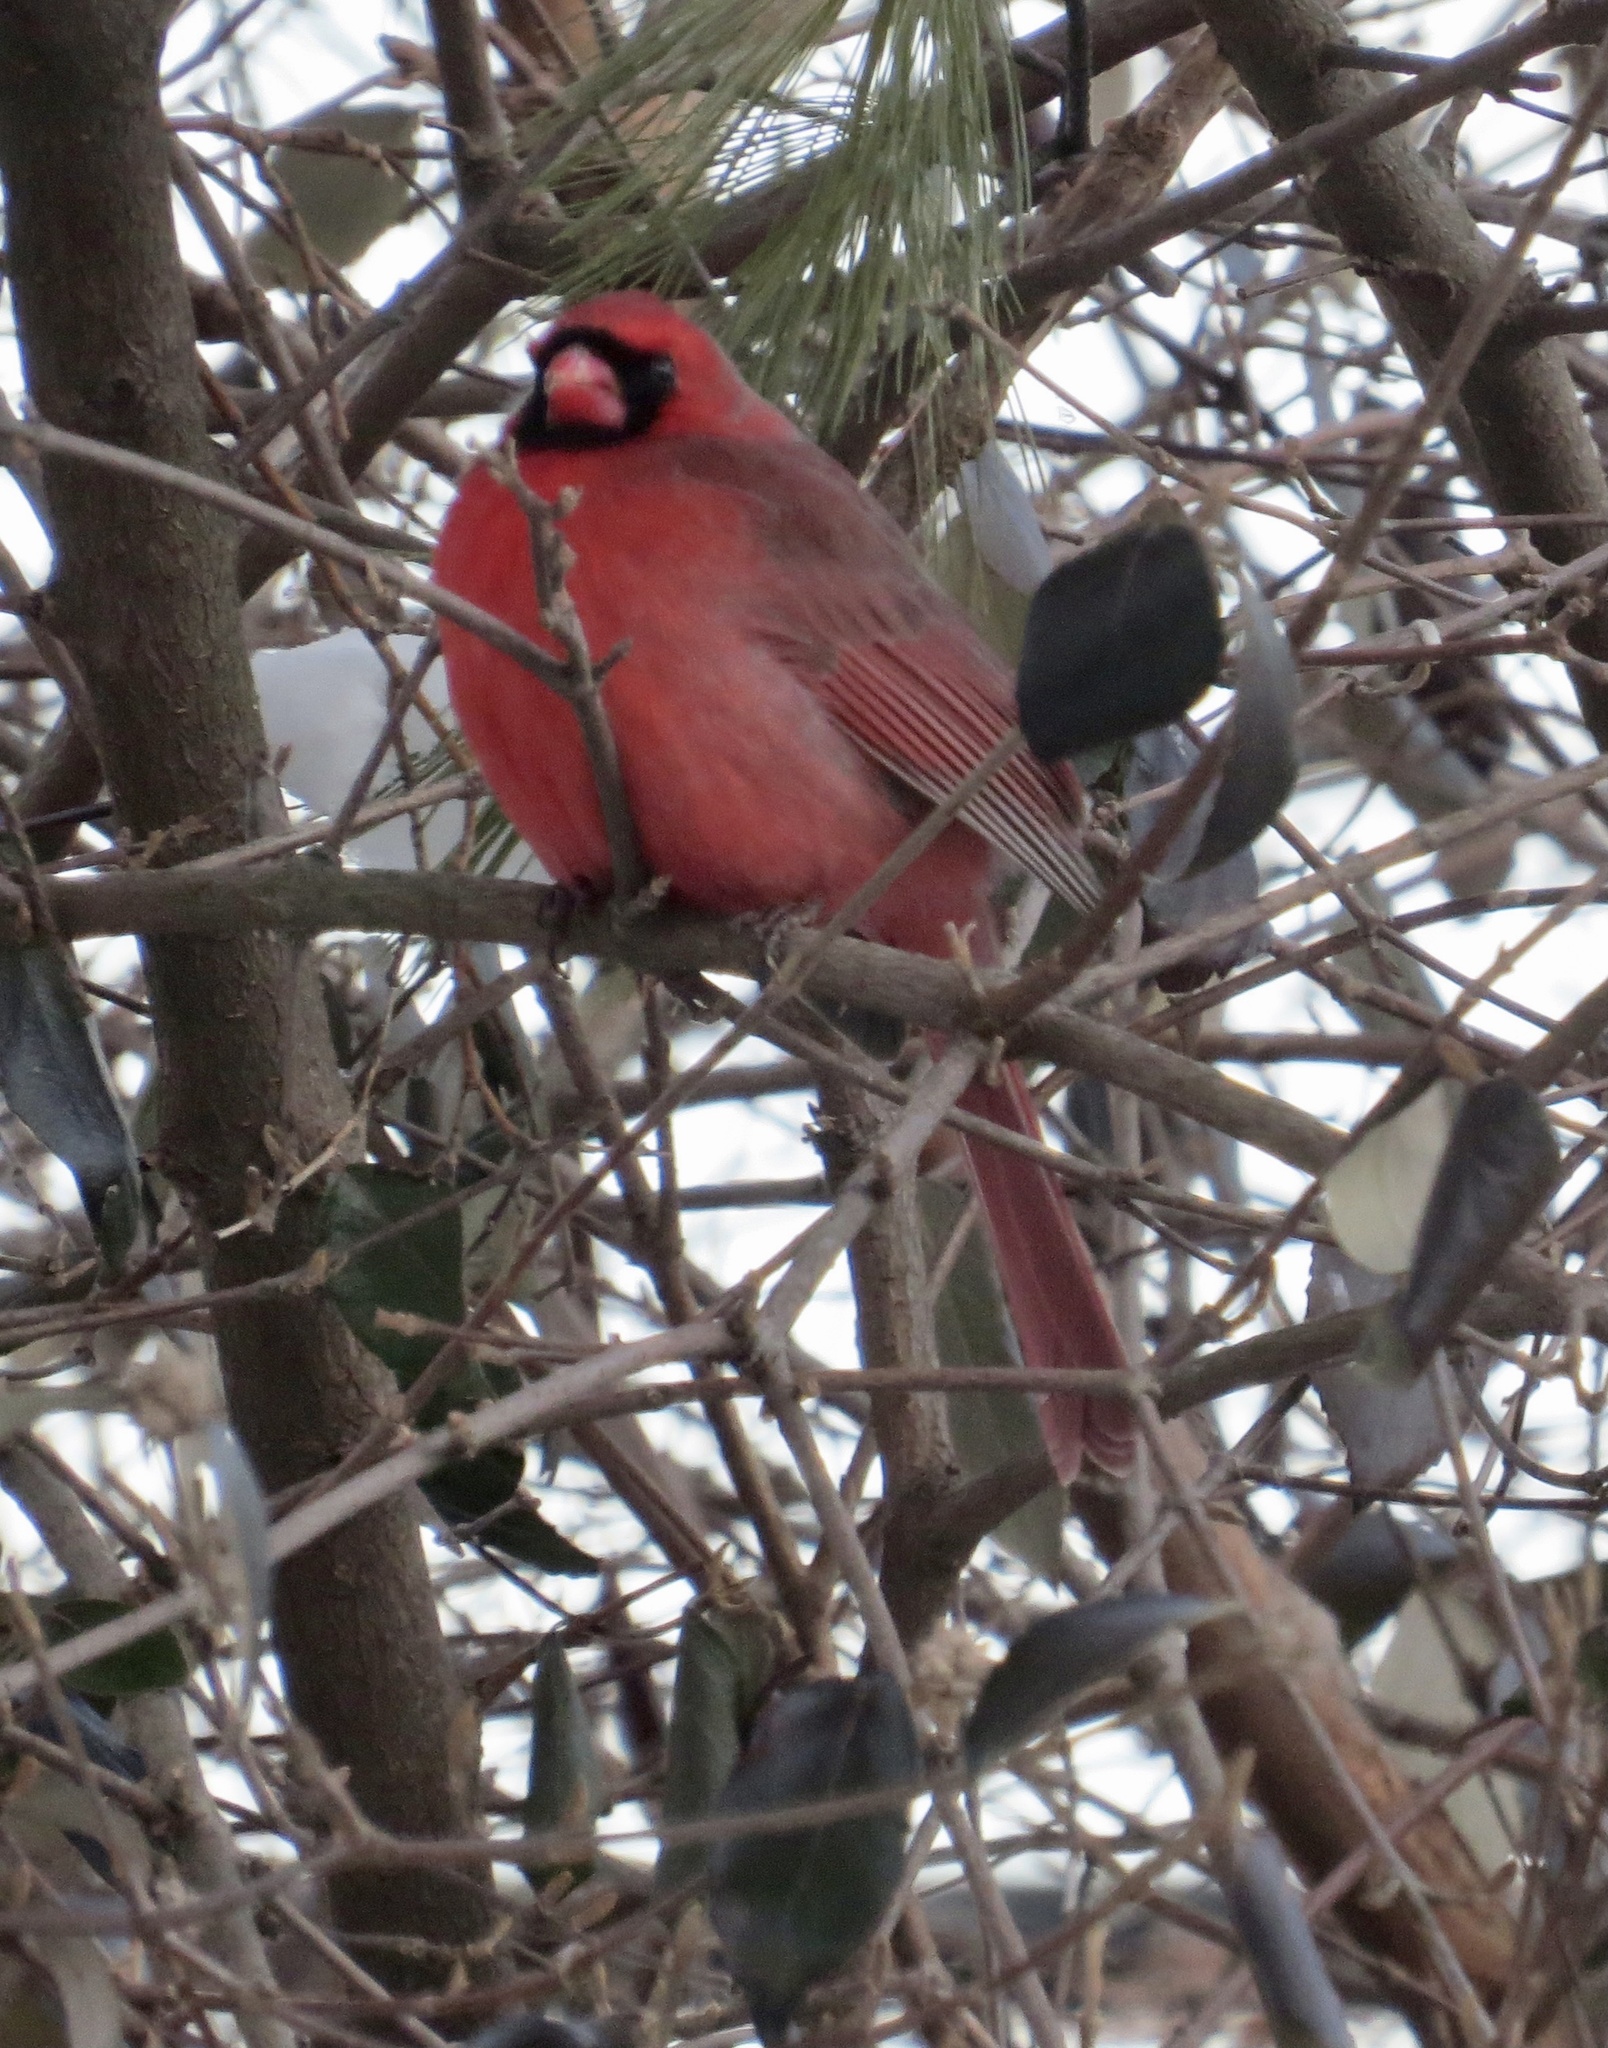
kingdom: Animalia
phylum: Chordata
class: Aves
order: Passeriformes
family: Cardinalidae
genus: Cardinalis
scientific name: Cardinalis cardinalis
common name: Northern cardinal
